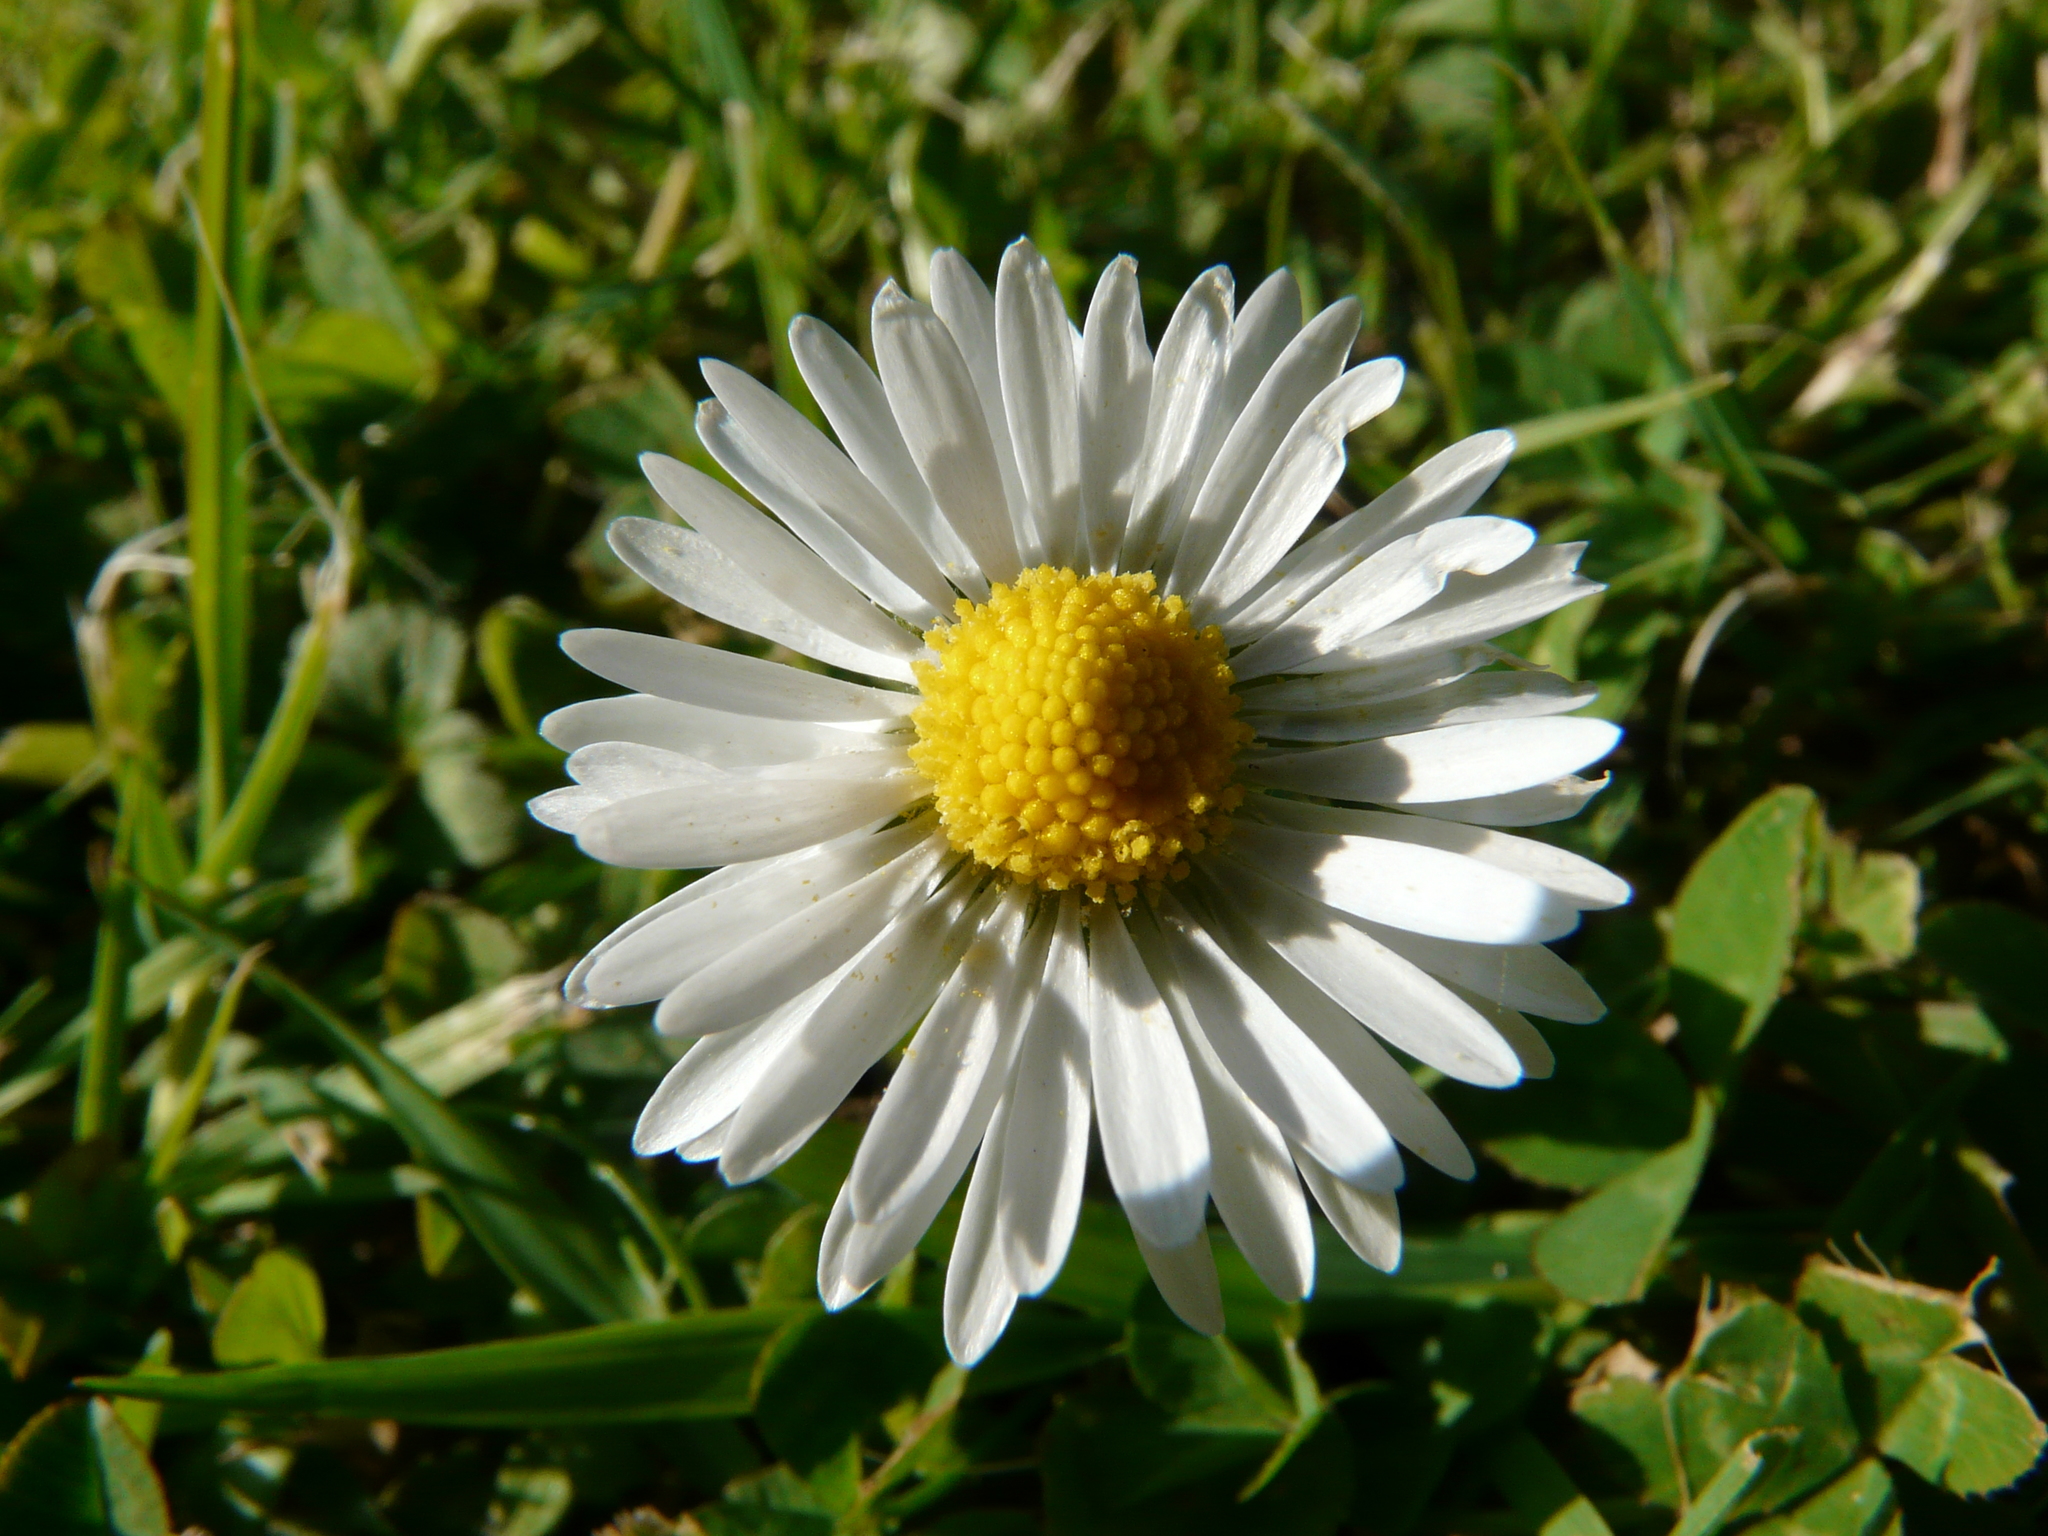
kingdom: Plantae
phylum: Tracheophyta
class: Magnoliopsida
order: Asterales
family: Asteraceae
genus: Bellis
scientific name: Bellis perennis
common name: Lawndaisy
